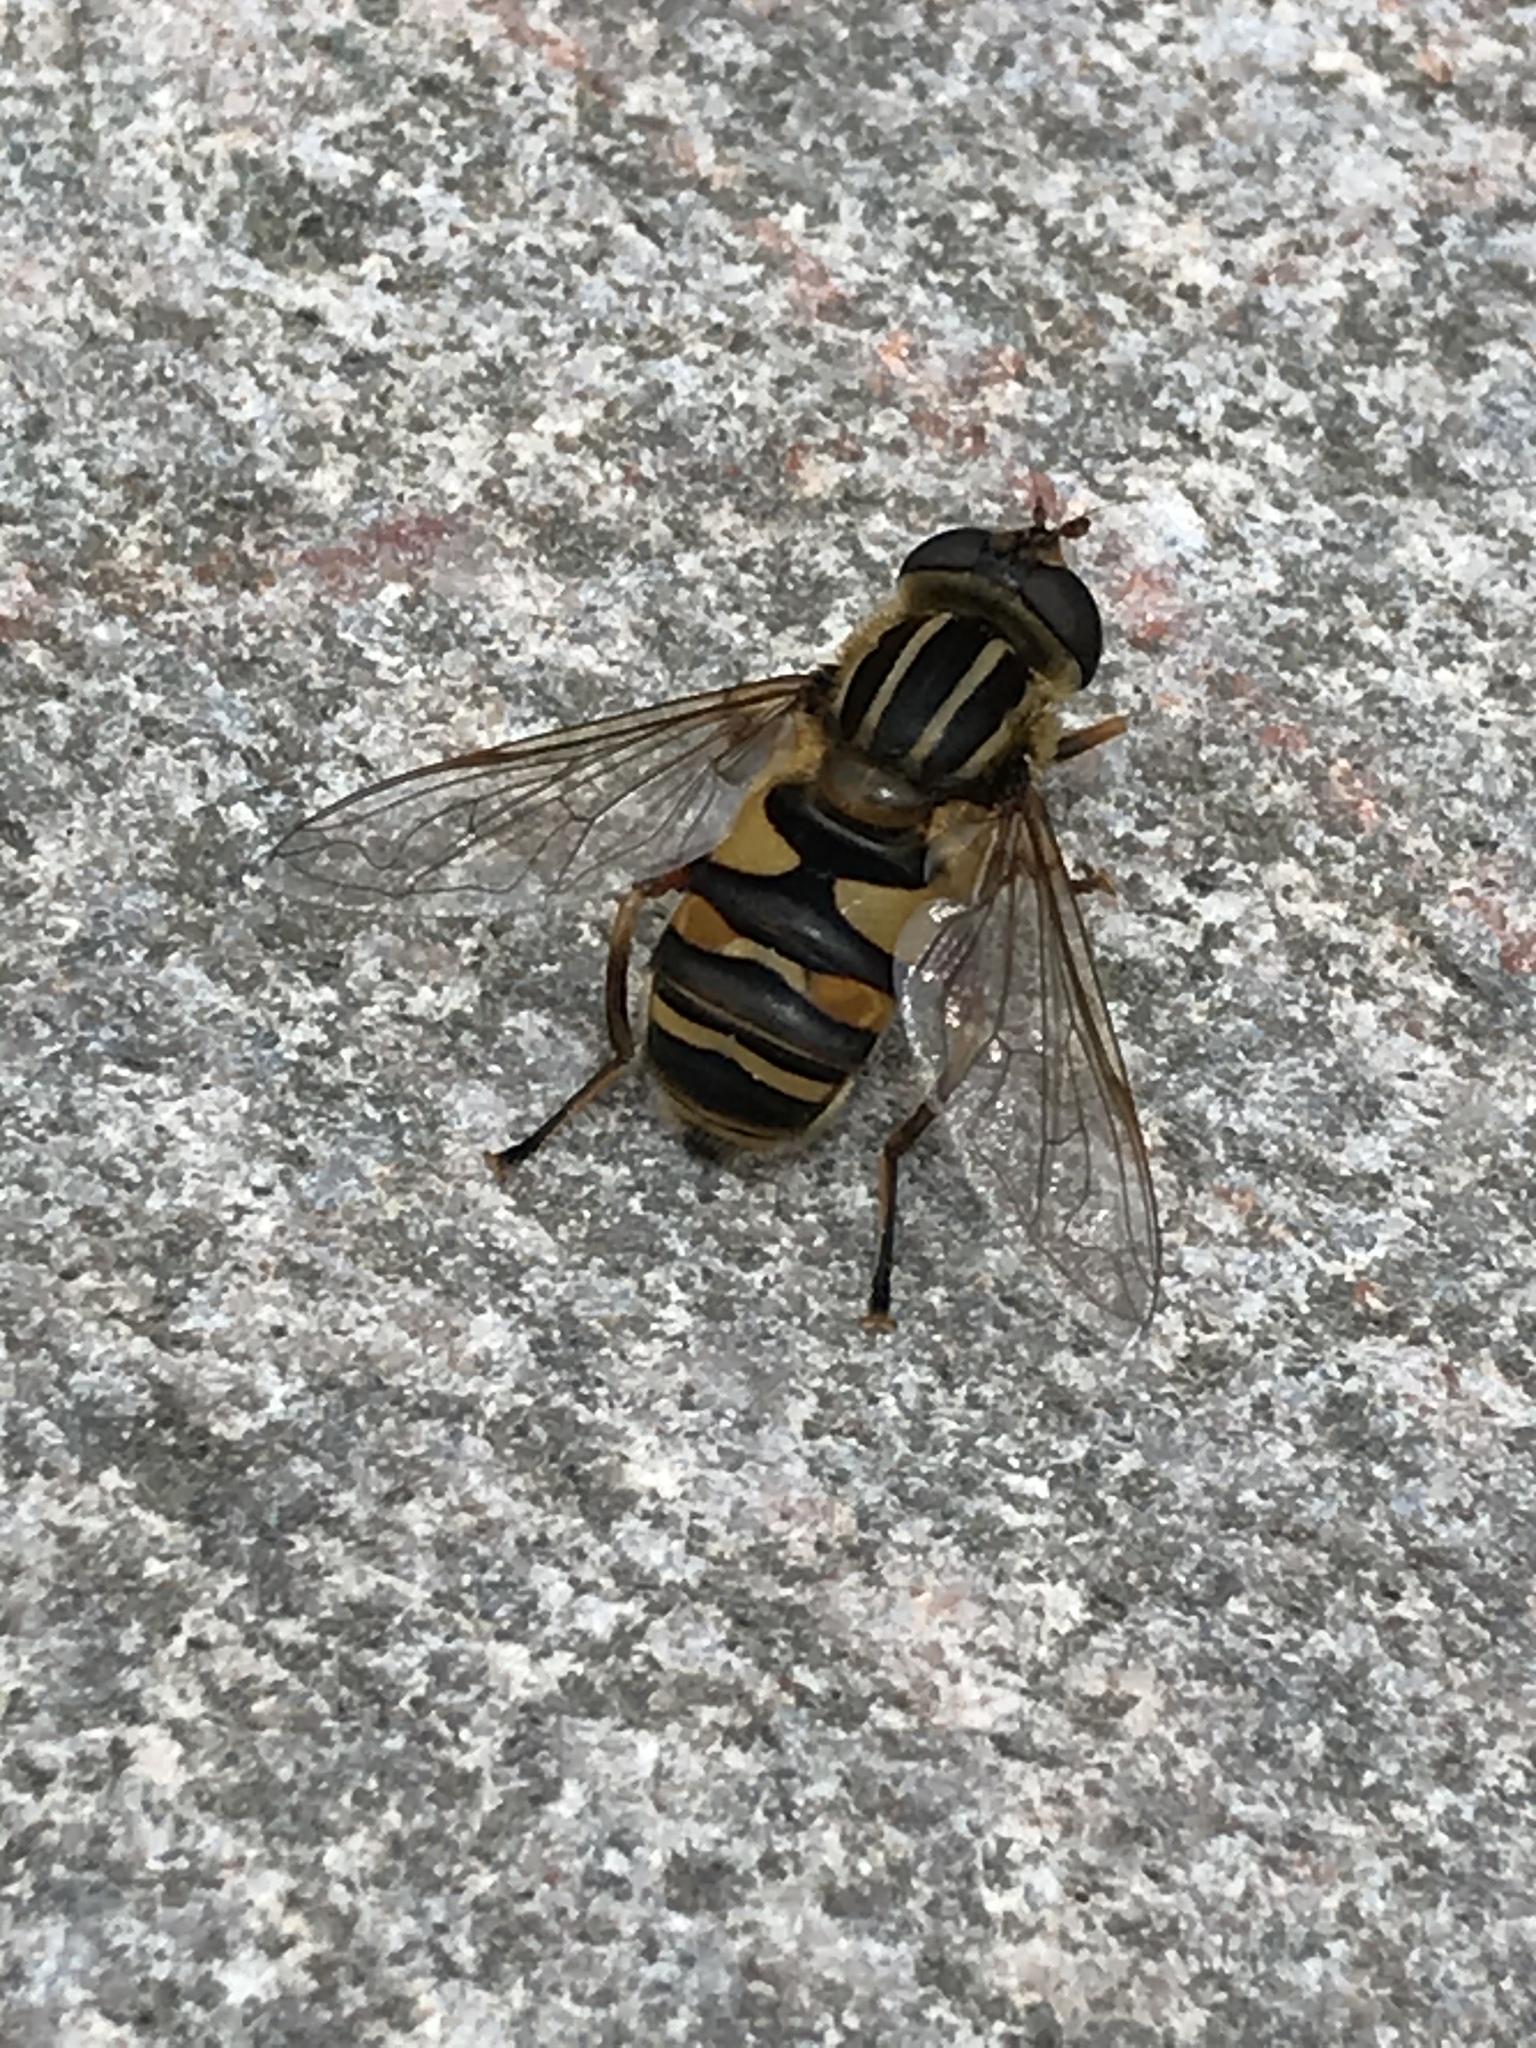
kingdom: Animalia
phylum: Arthropoda
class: Insecta
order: Diptera
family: Syrphidae
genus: Helophilus
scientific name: Helophilus fasciatus
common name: Narrow-headed marsh fly
